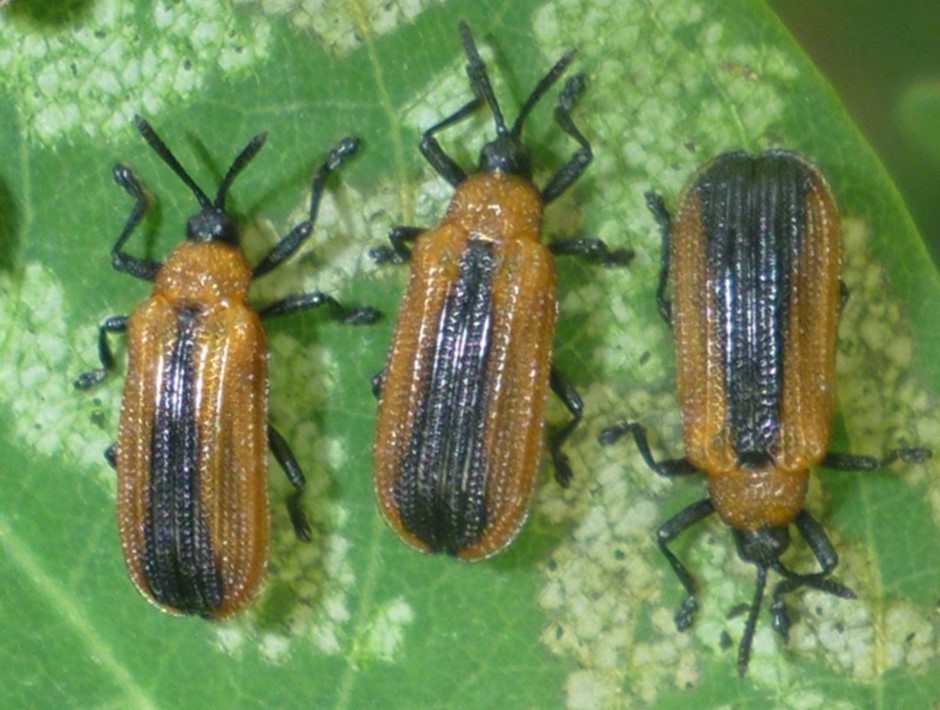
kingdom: Animalia
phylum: Arthropoda
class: Insecta
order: Coleoptera
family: Chrysomelidae
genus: Odontota
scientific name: Odontota dorsalis
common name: Locust leaf-miner beetle
